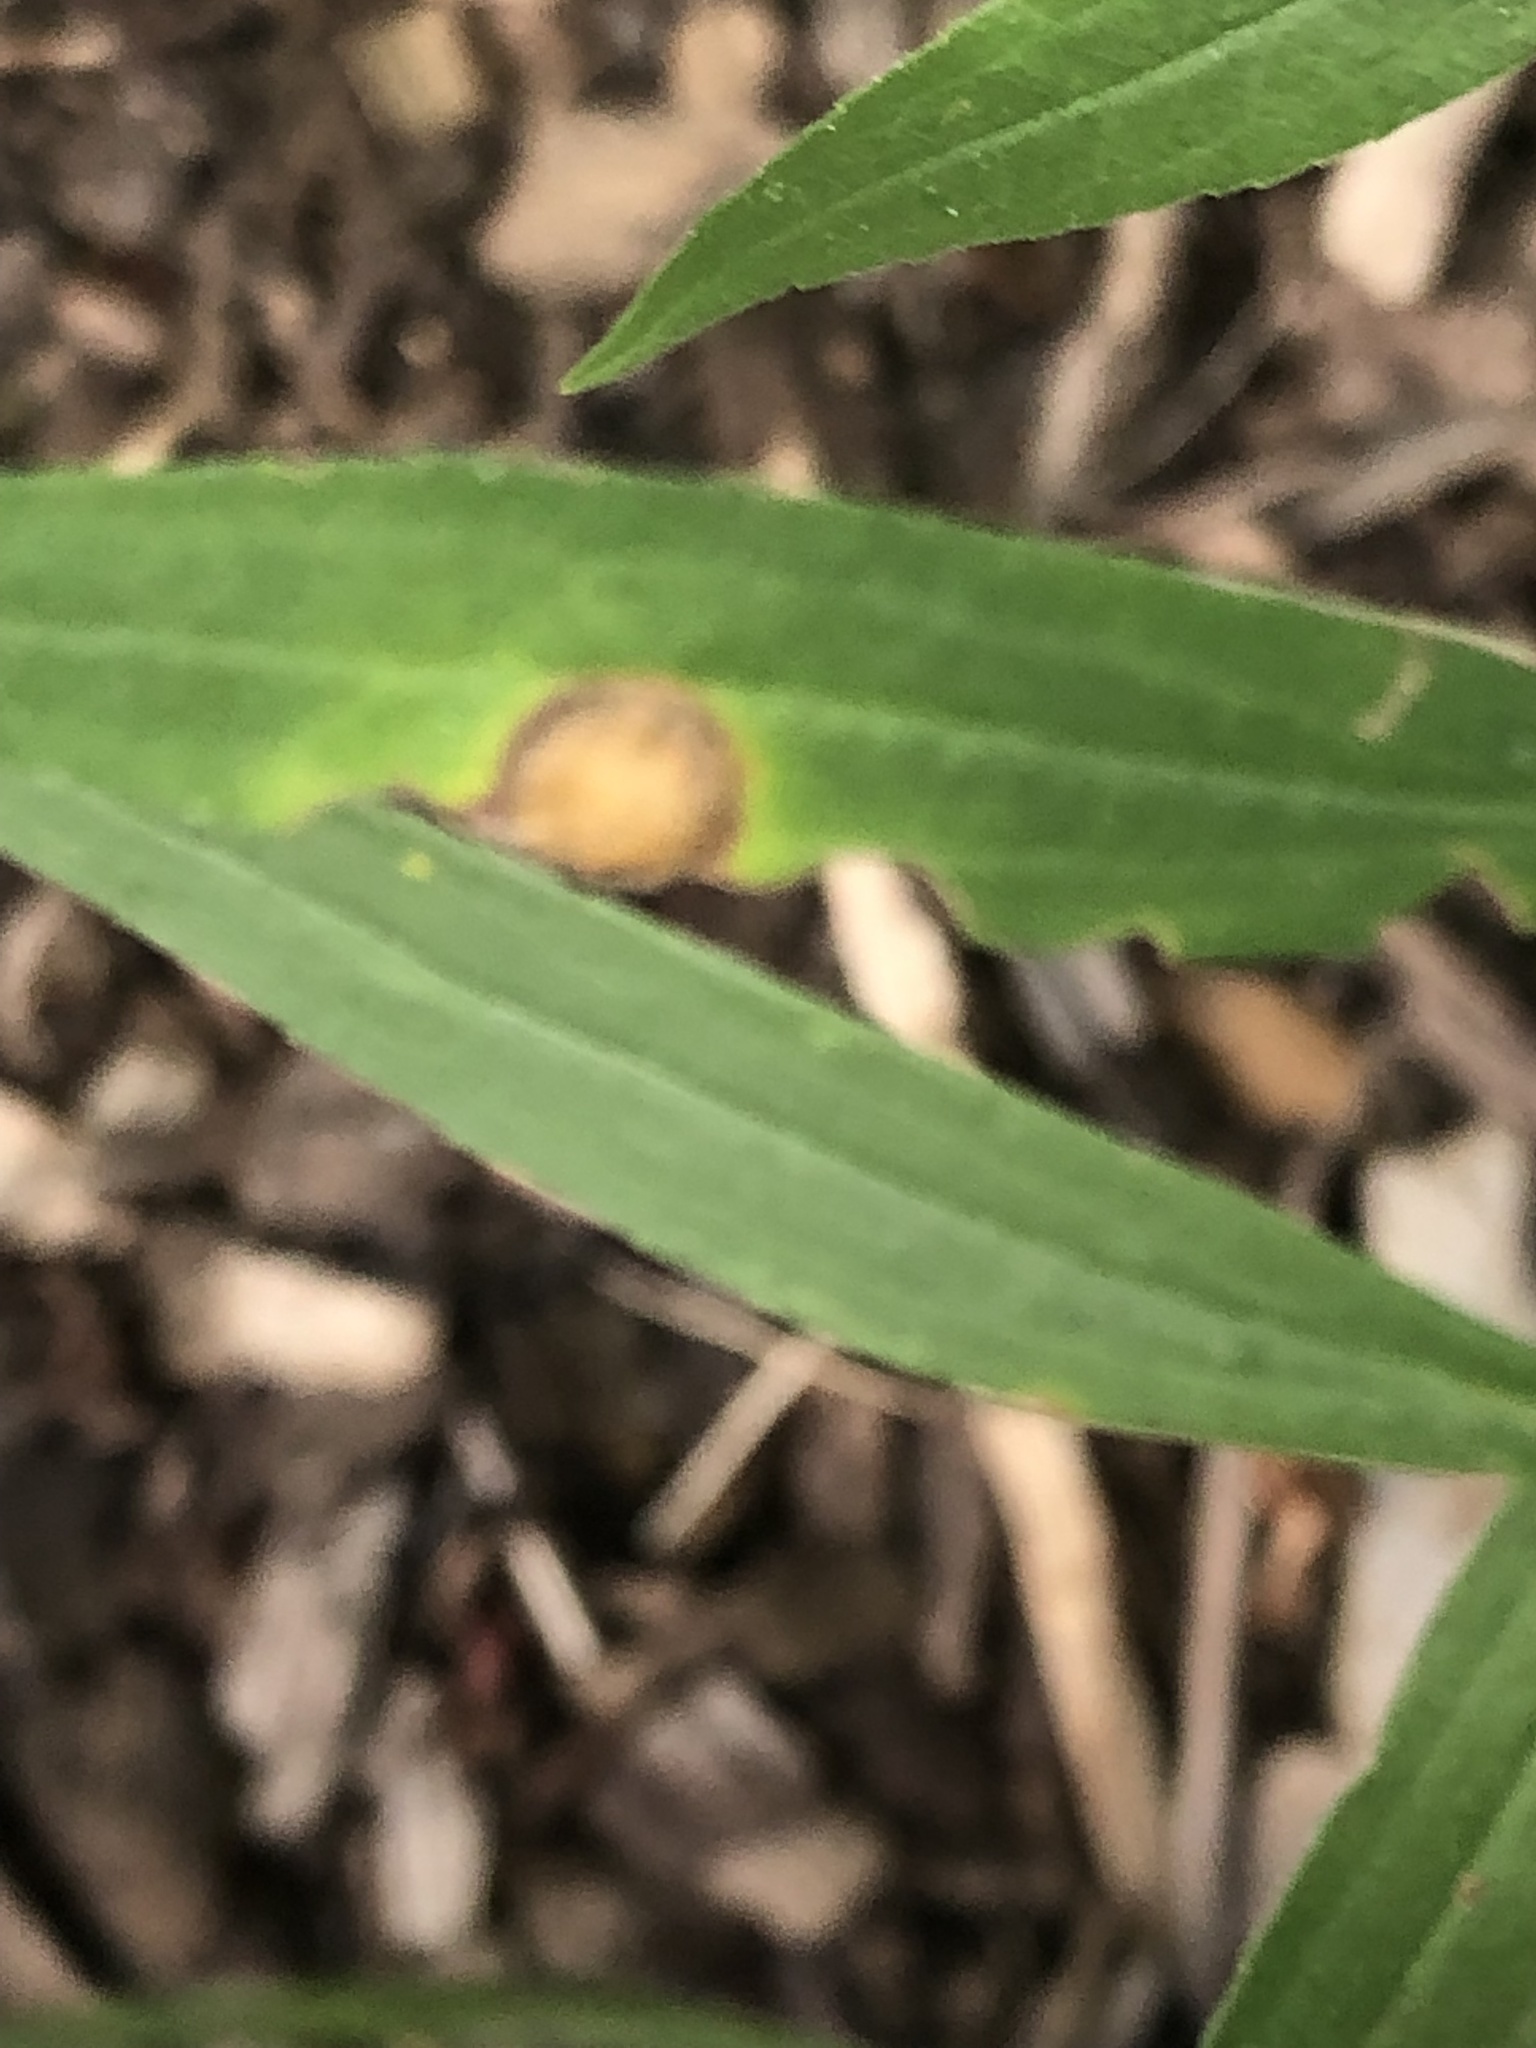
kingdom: Animalia
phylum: Arthropoda
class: Insecta
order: Diptera
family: Cecidomyiidae
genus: Asteromyia
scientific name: Asteromyia carbonifera
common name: Carbonifera goldenrod gall midge
